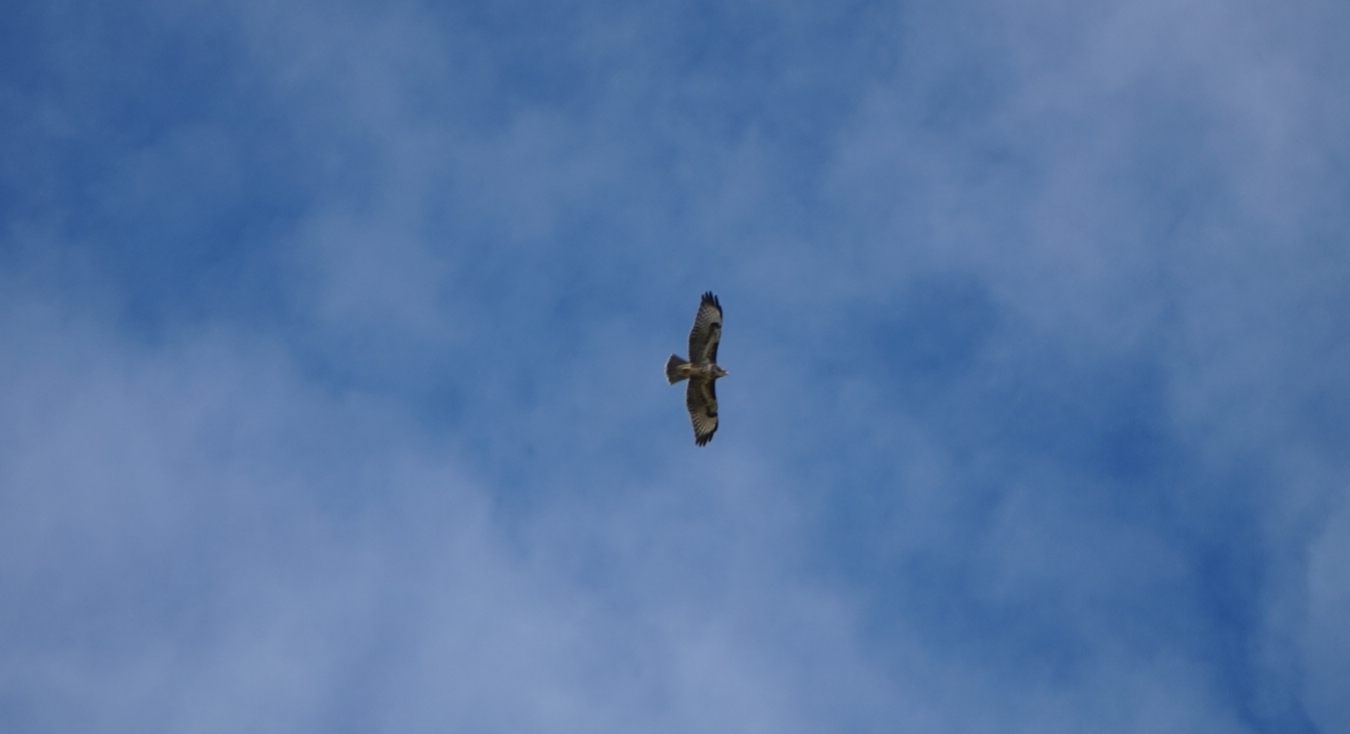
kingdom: Animalia
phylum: Chordata
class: Aves
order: Accipitriformes
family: Accipitridae
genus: Buteo
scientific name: Buteo buteo
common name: Common buzzard
